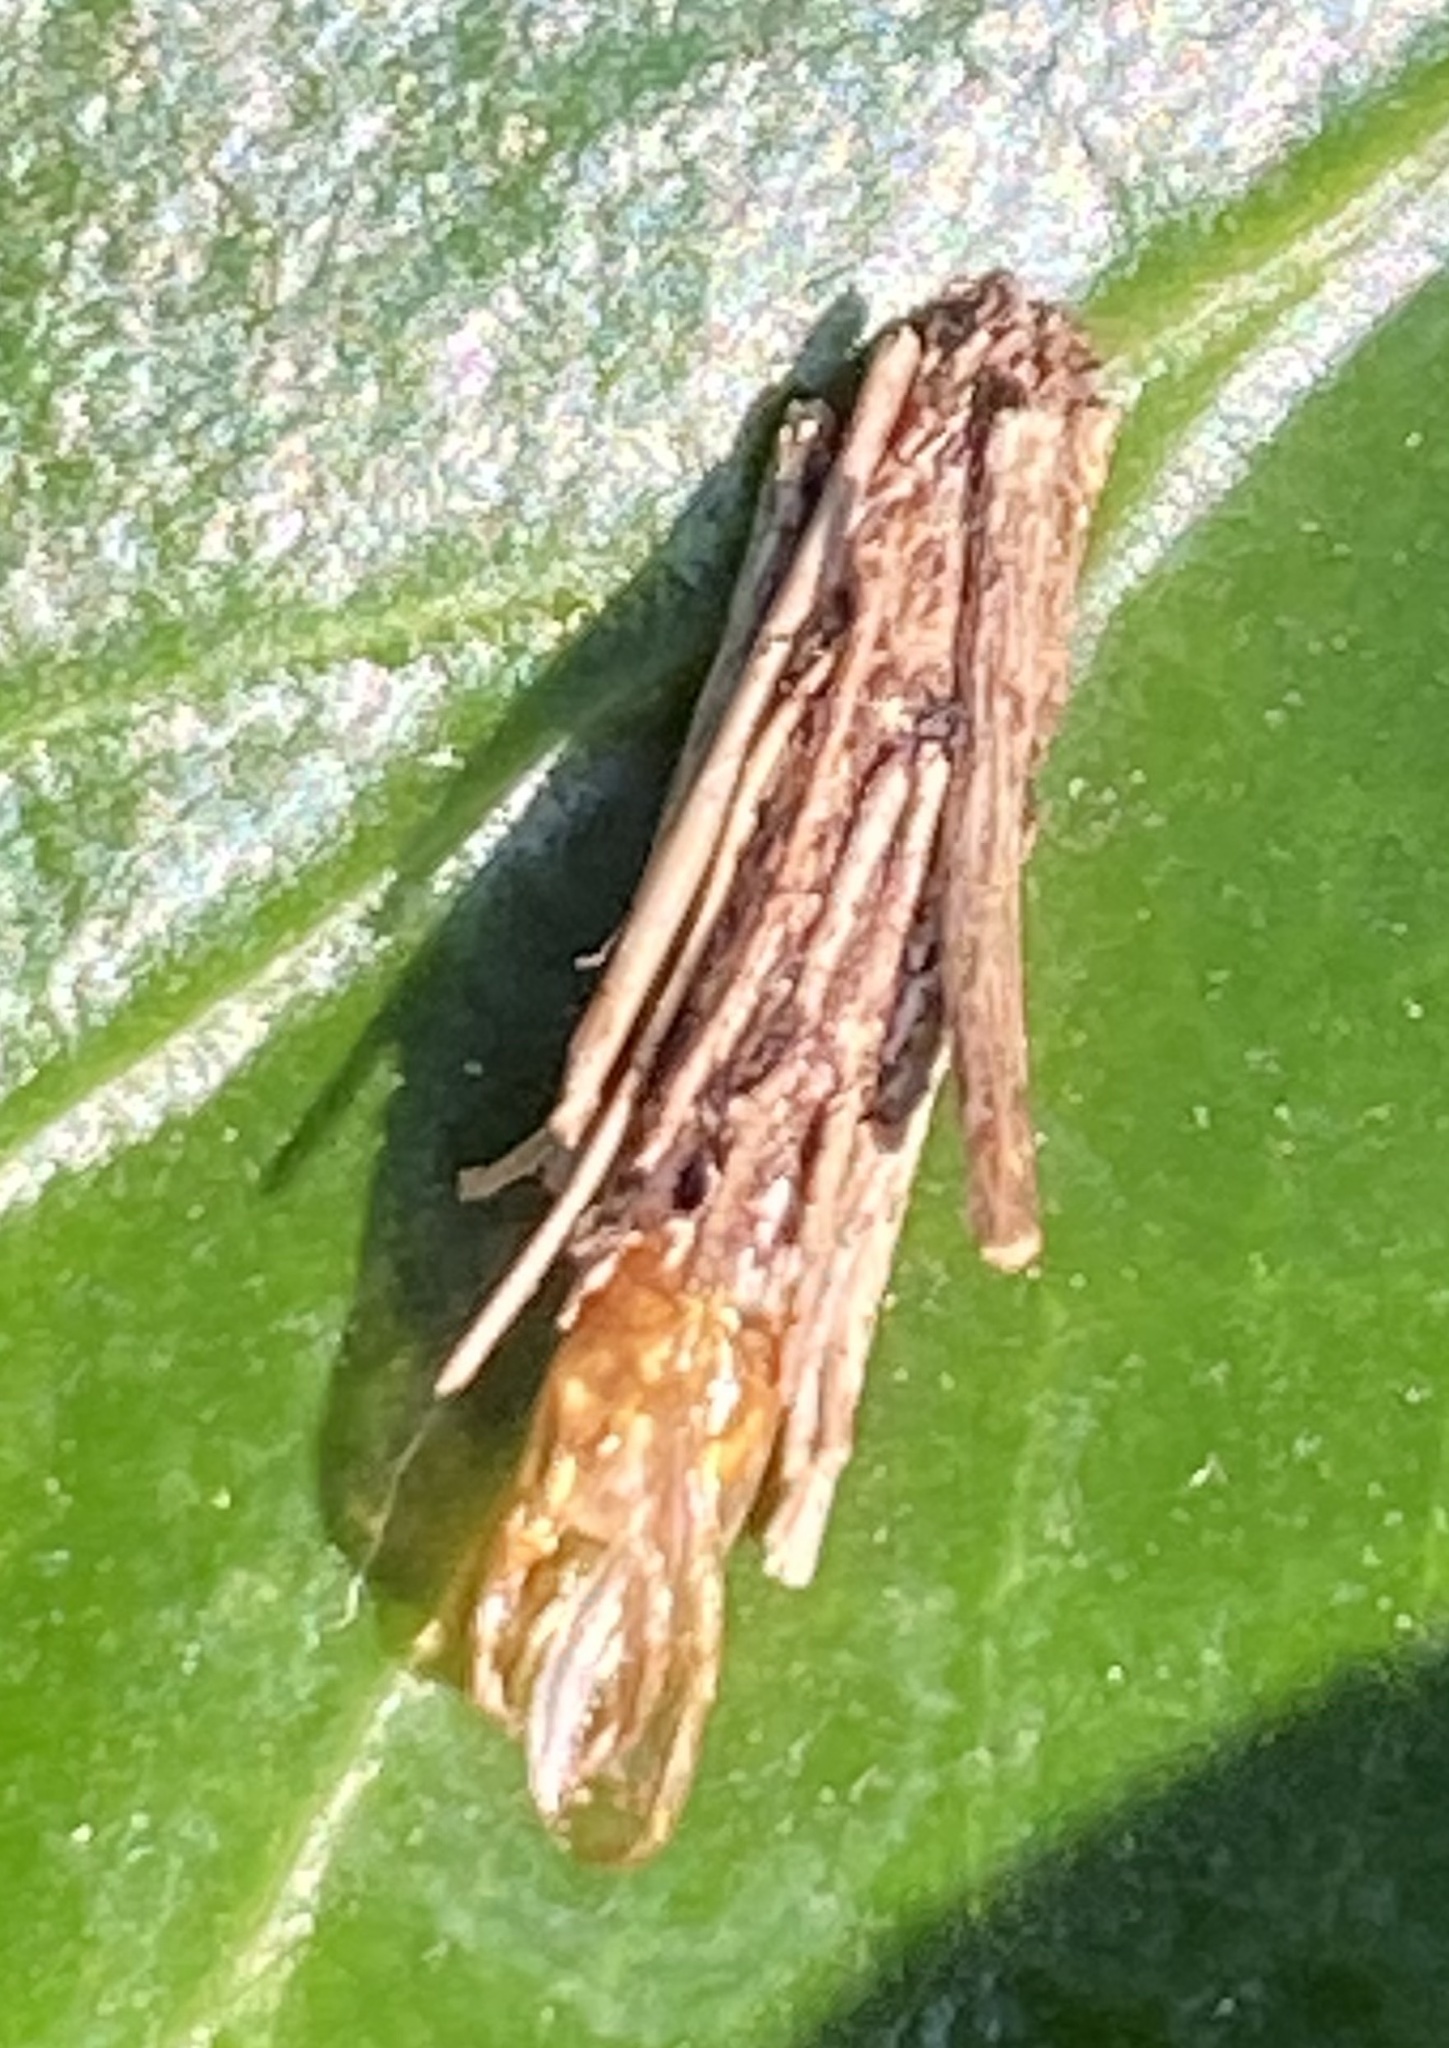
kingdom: Animalia
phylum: Arthropoda
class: Insecta
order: Lepidoptera
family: Psychidae
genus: Psyche
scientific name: Psyche casta
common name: Common sweep
